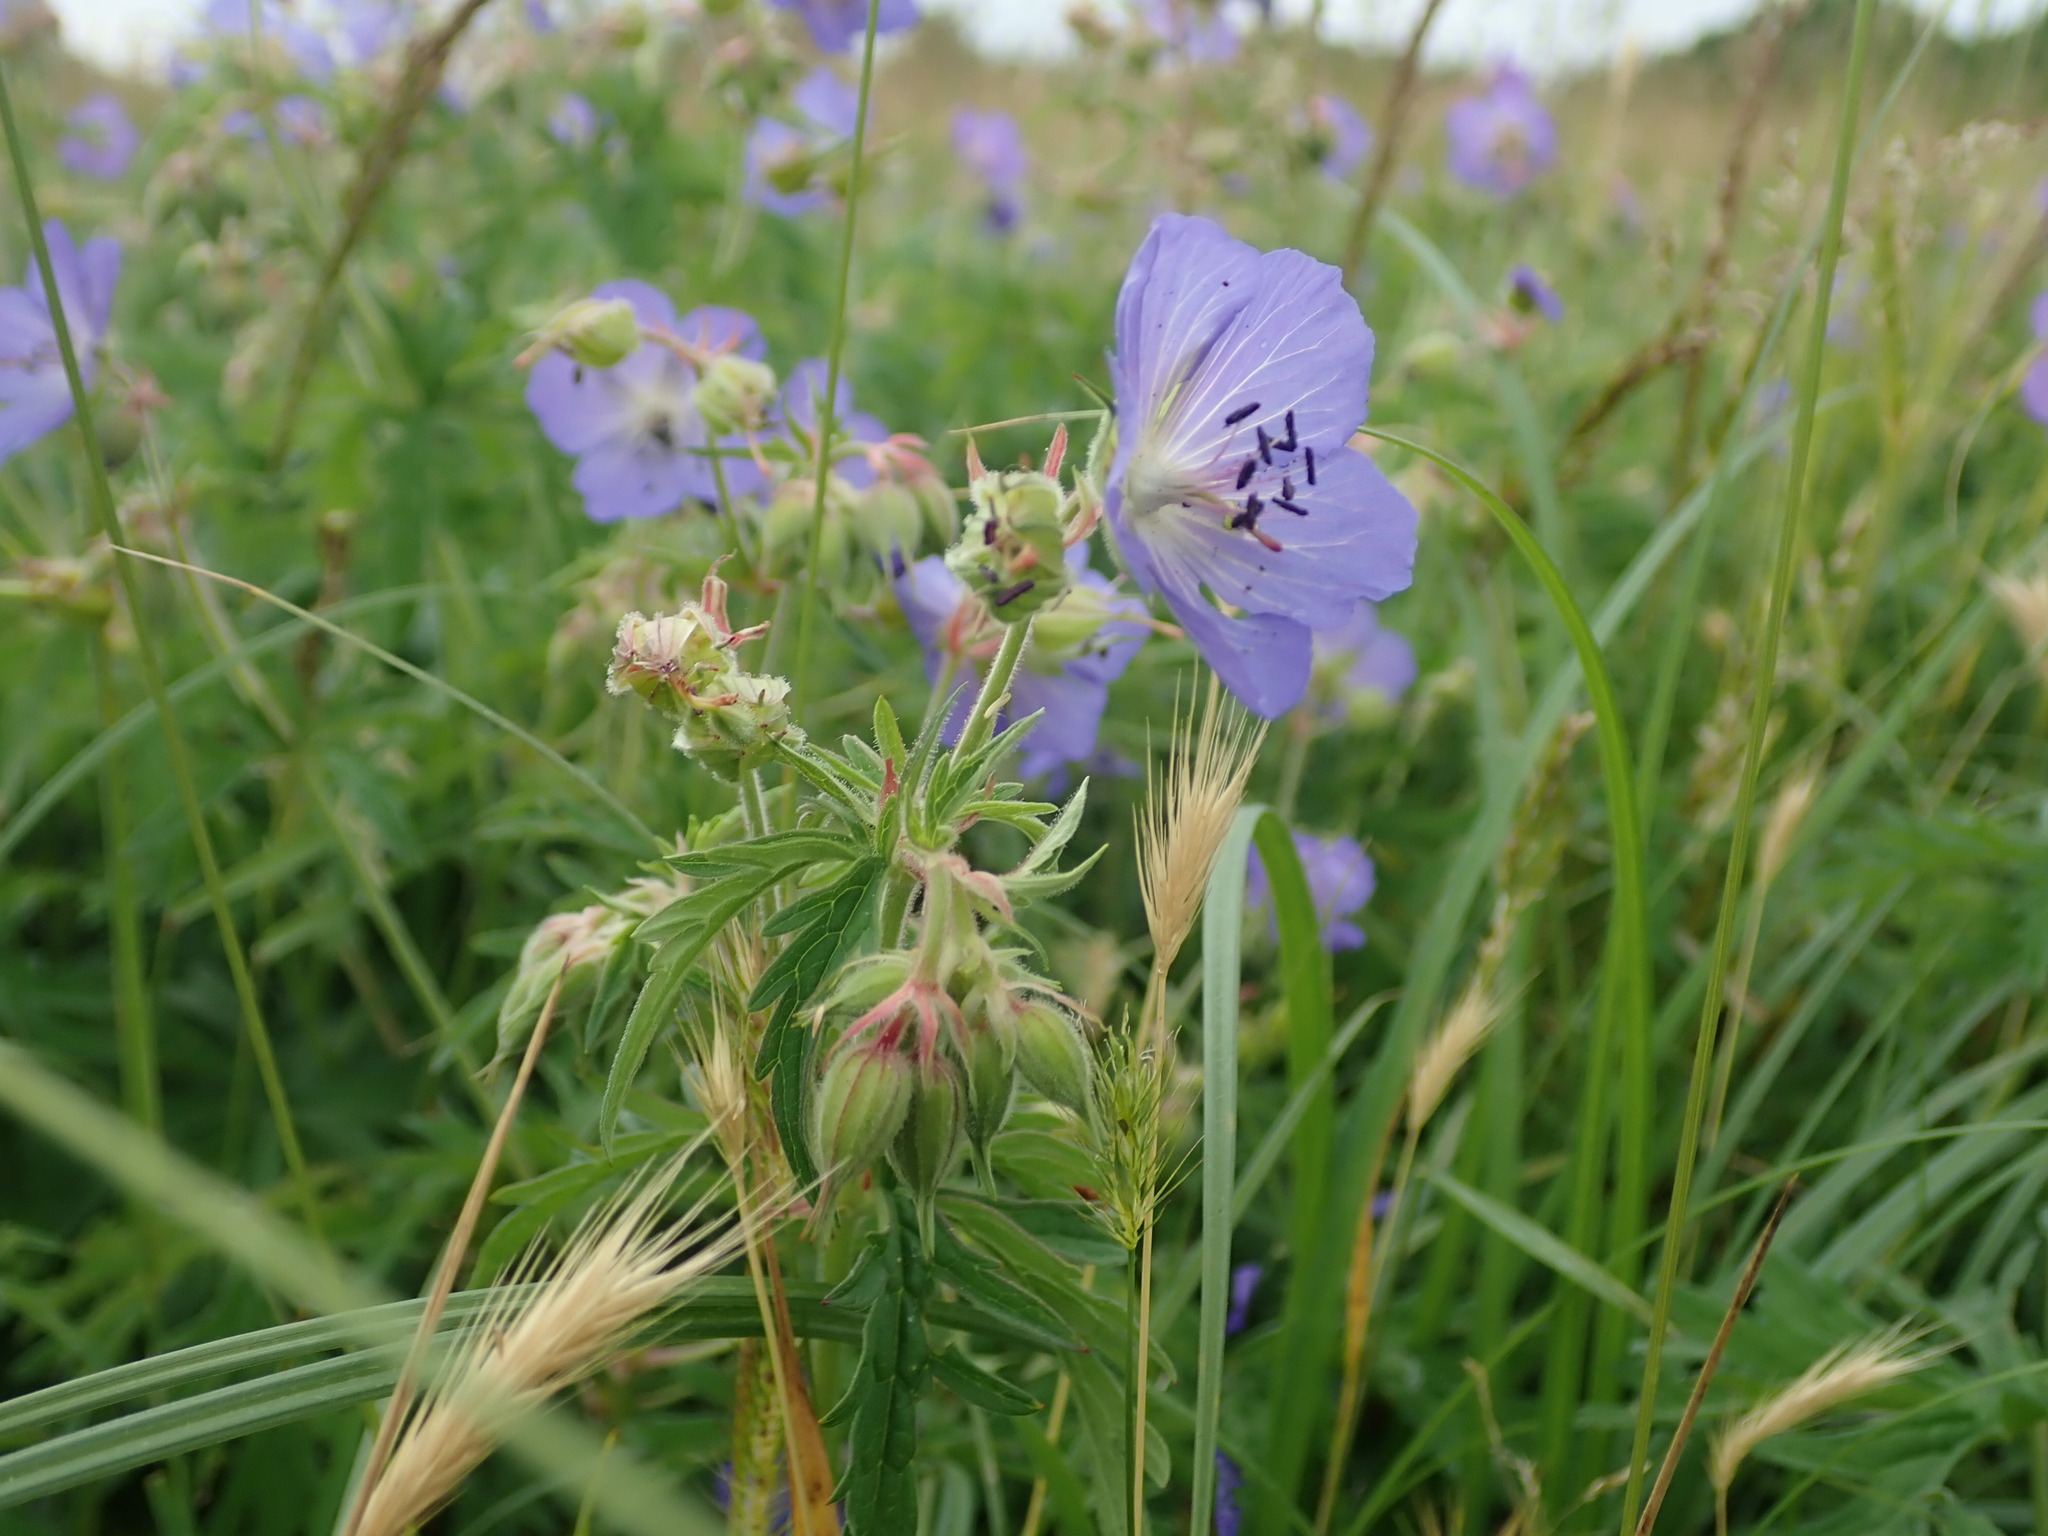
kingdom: Plantae
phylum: Tracheophyta
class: Magnoliopsida
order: Geraniales
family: Geraniaceae
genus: Geranium
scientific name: Geranium pratense
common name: Meadow crane's-bill
